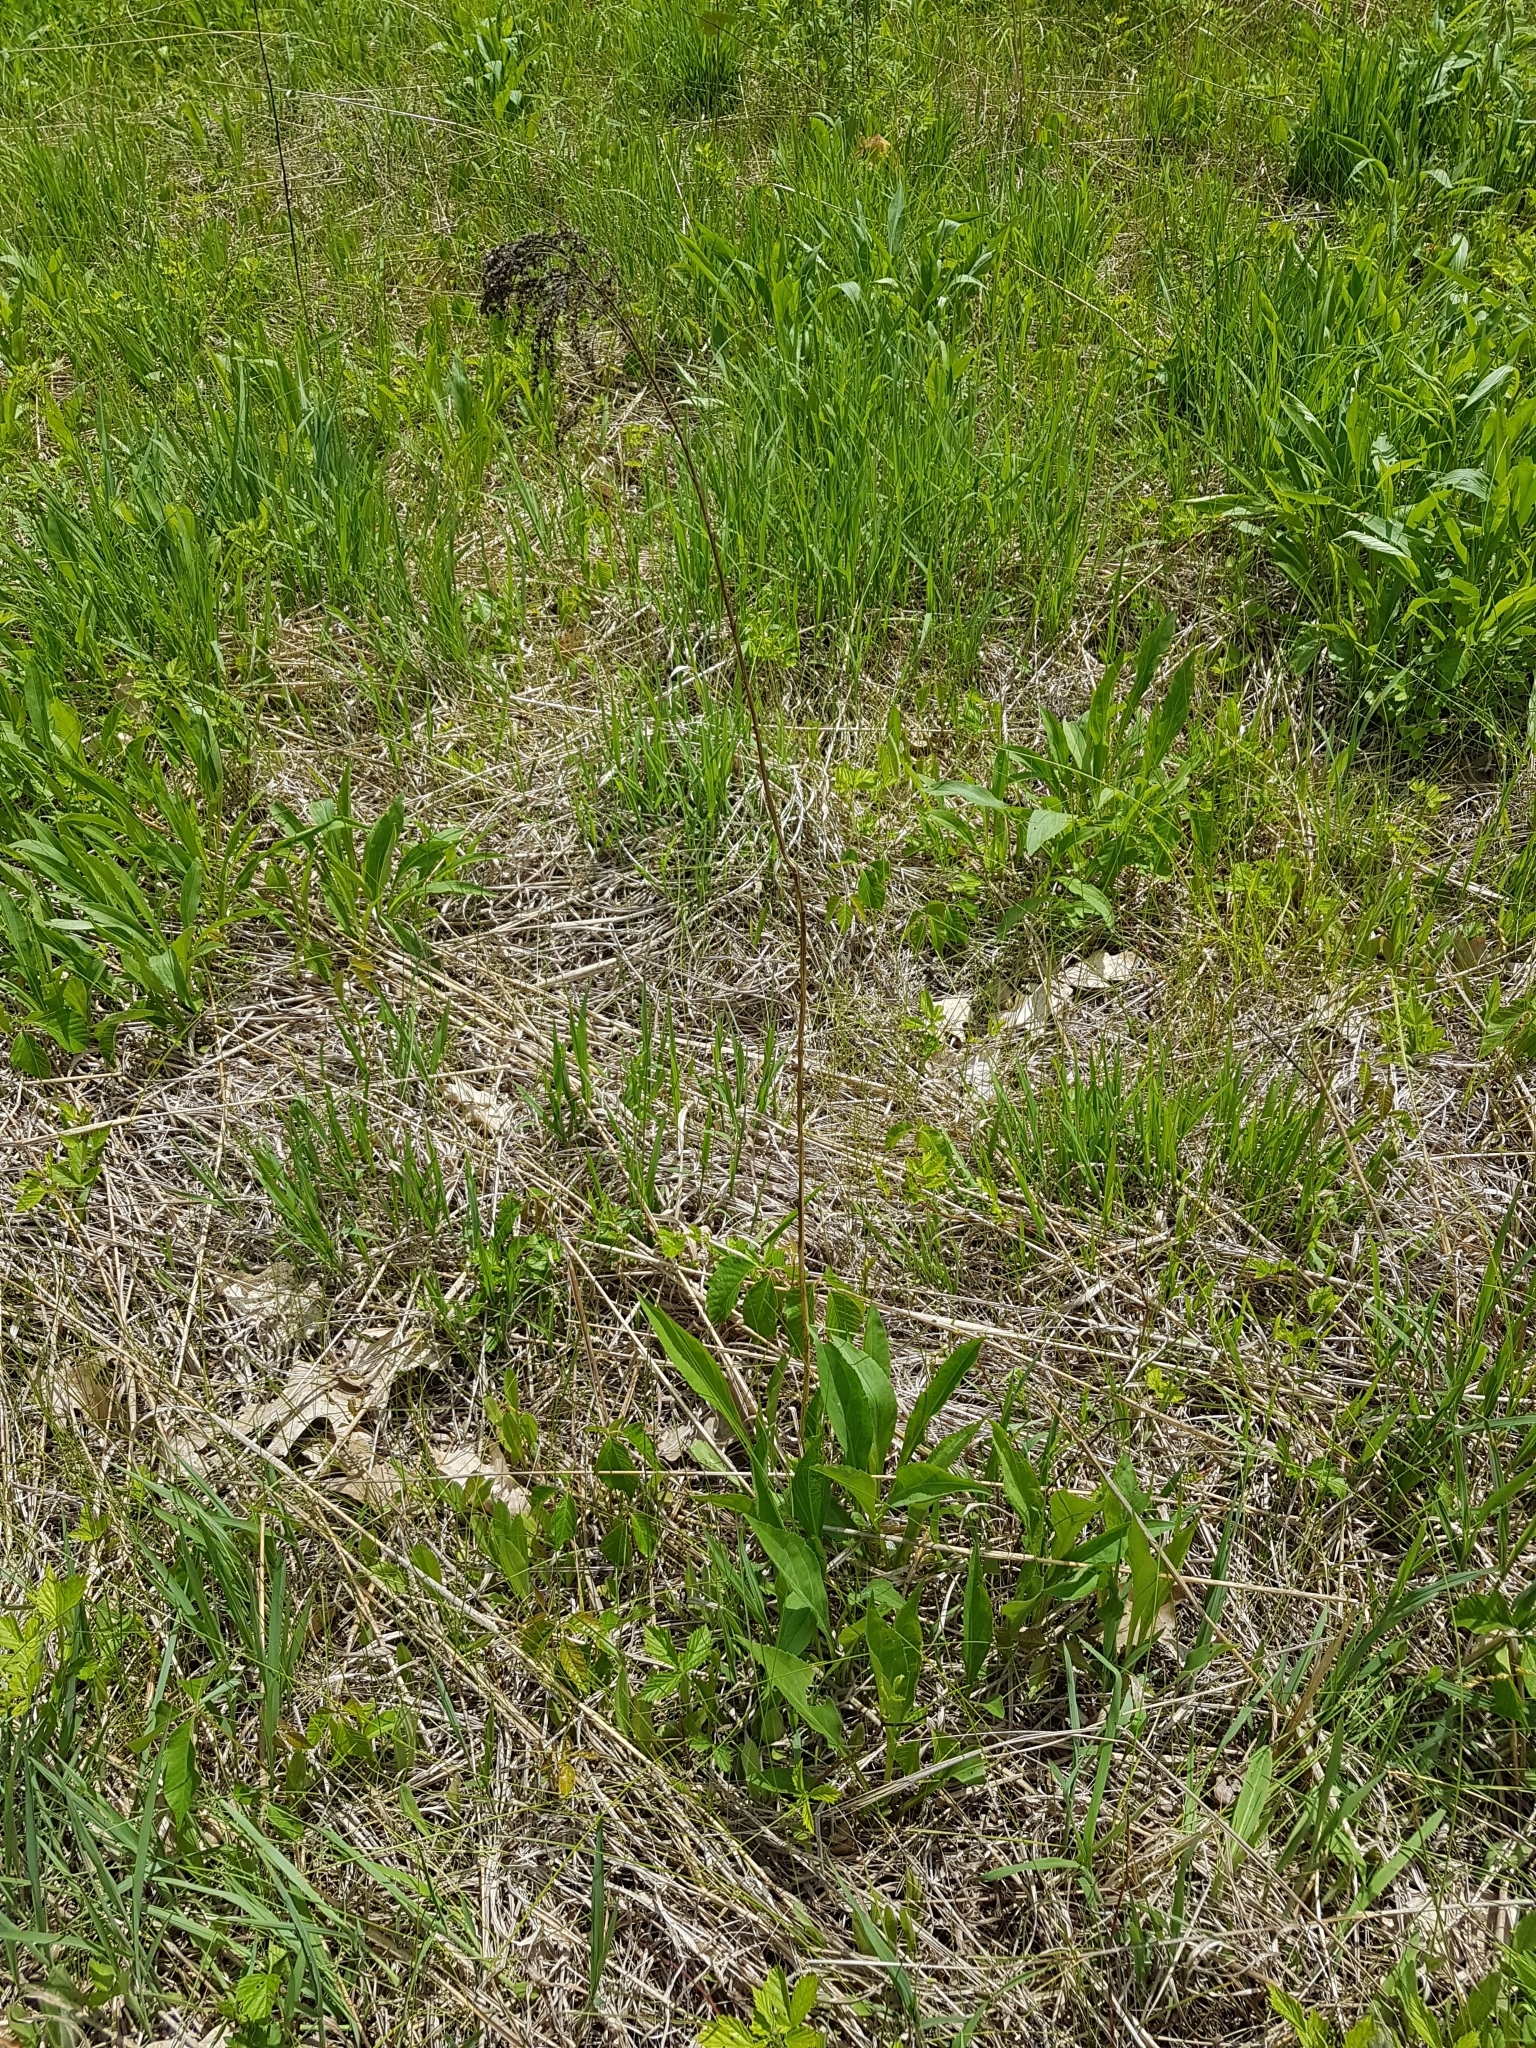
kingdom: Plantae
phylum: Tracheophyta
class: Magnoliopsida
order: Asterales
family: Asteraceae
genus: Solidago
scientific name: Solidago juncea
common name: Early goldenrod
